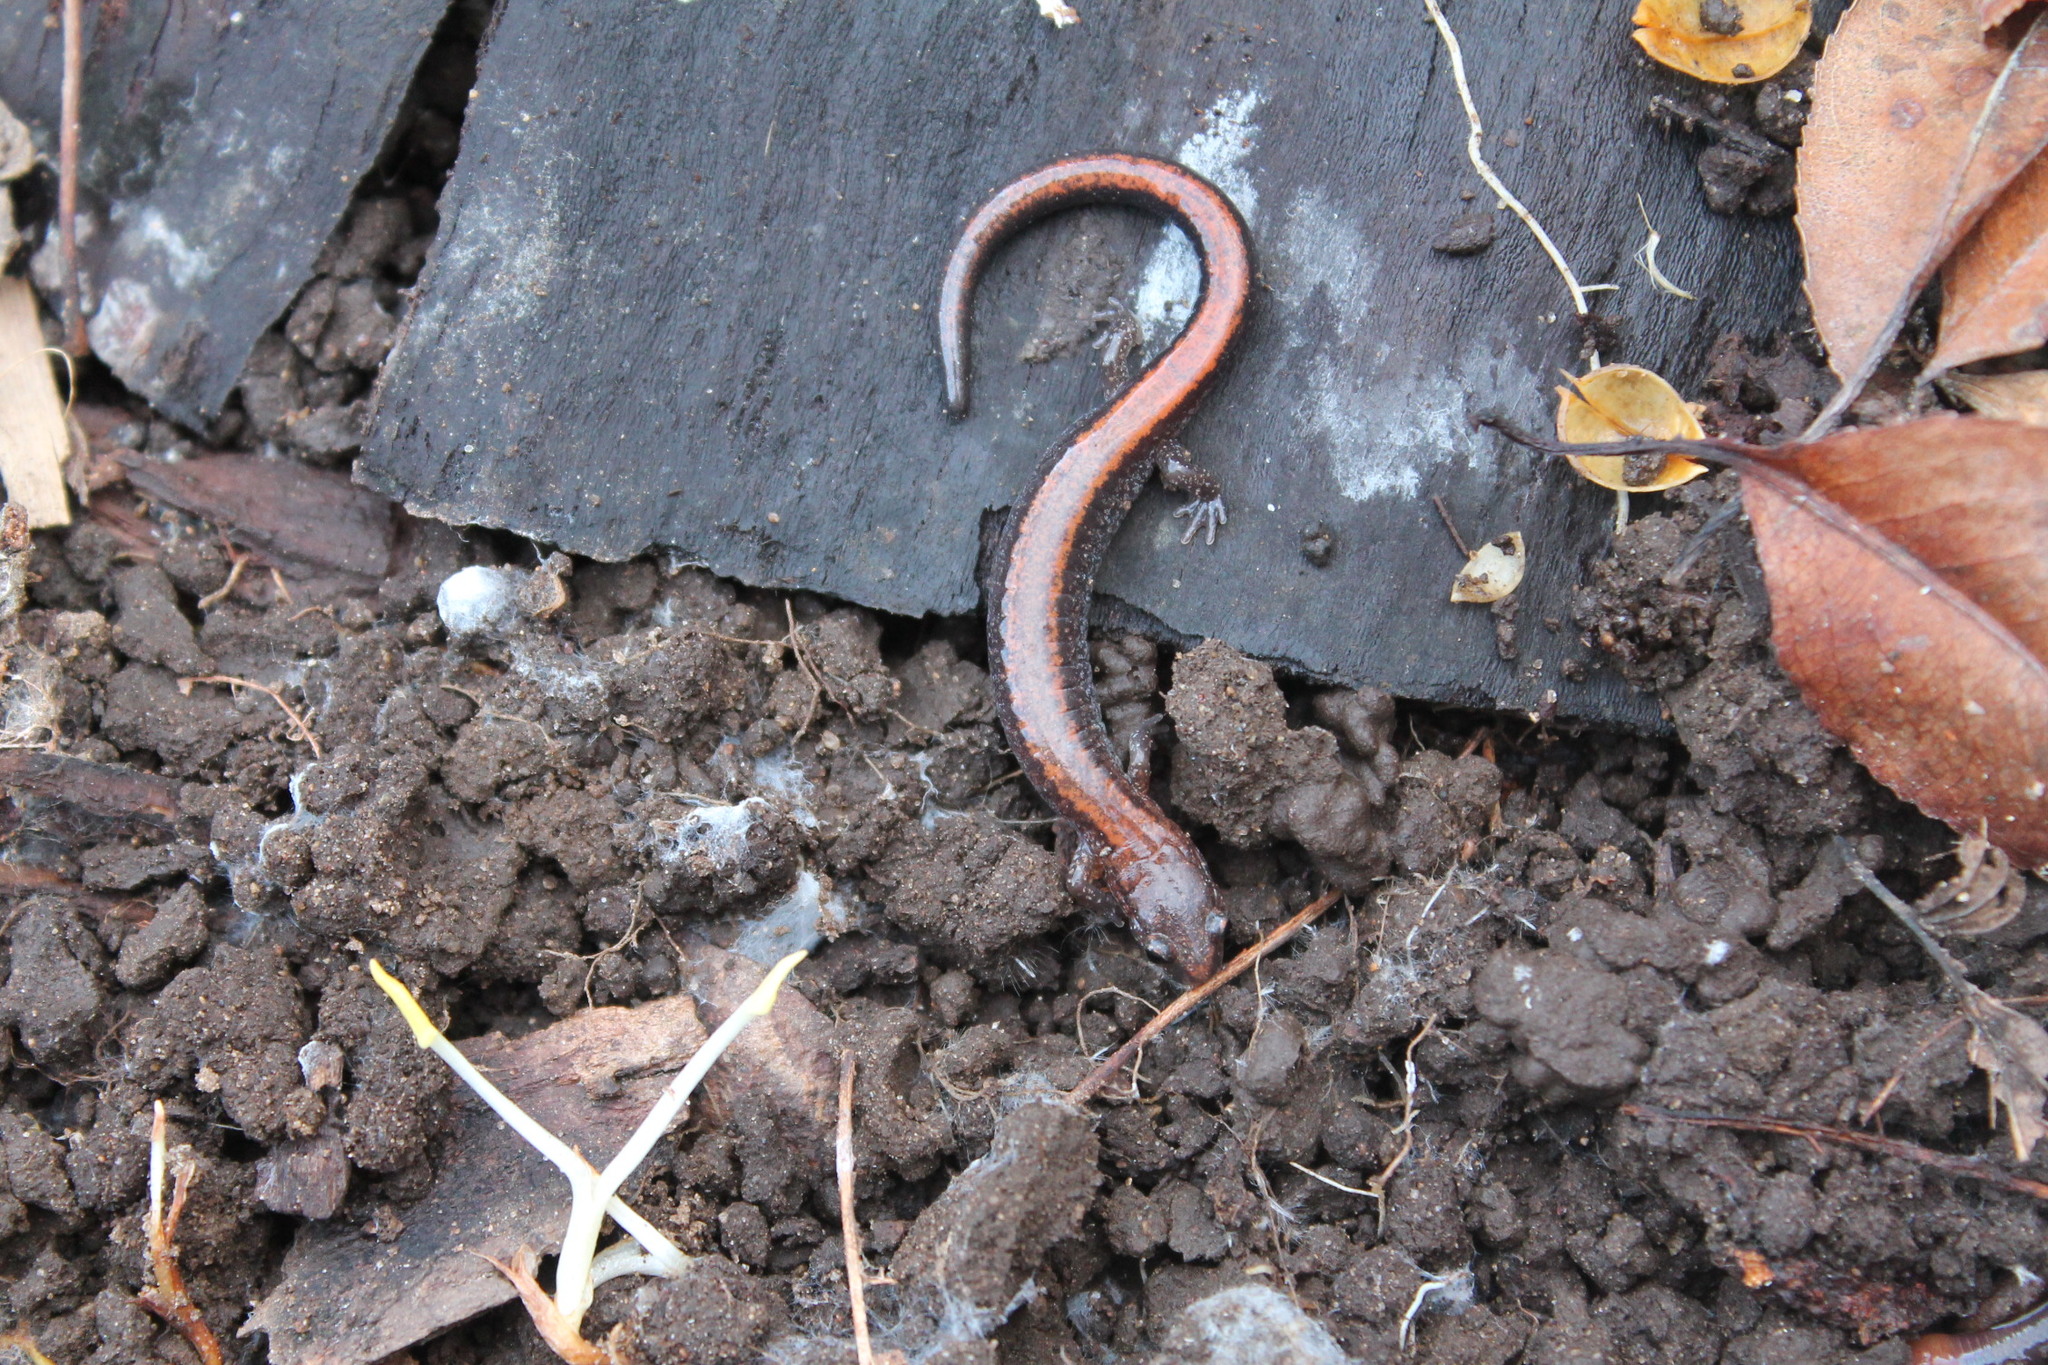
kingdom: Animalia
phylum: Chordata
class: Amphibia
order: Caudata
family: Plethodontidae
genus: Plethodon
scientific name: Plethodon cinereus
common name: Redback salamander
